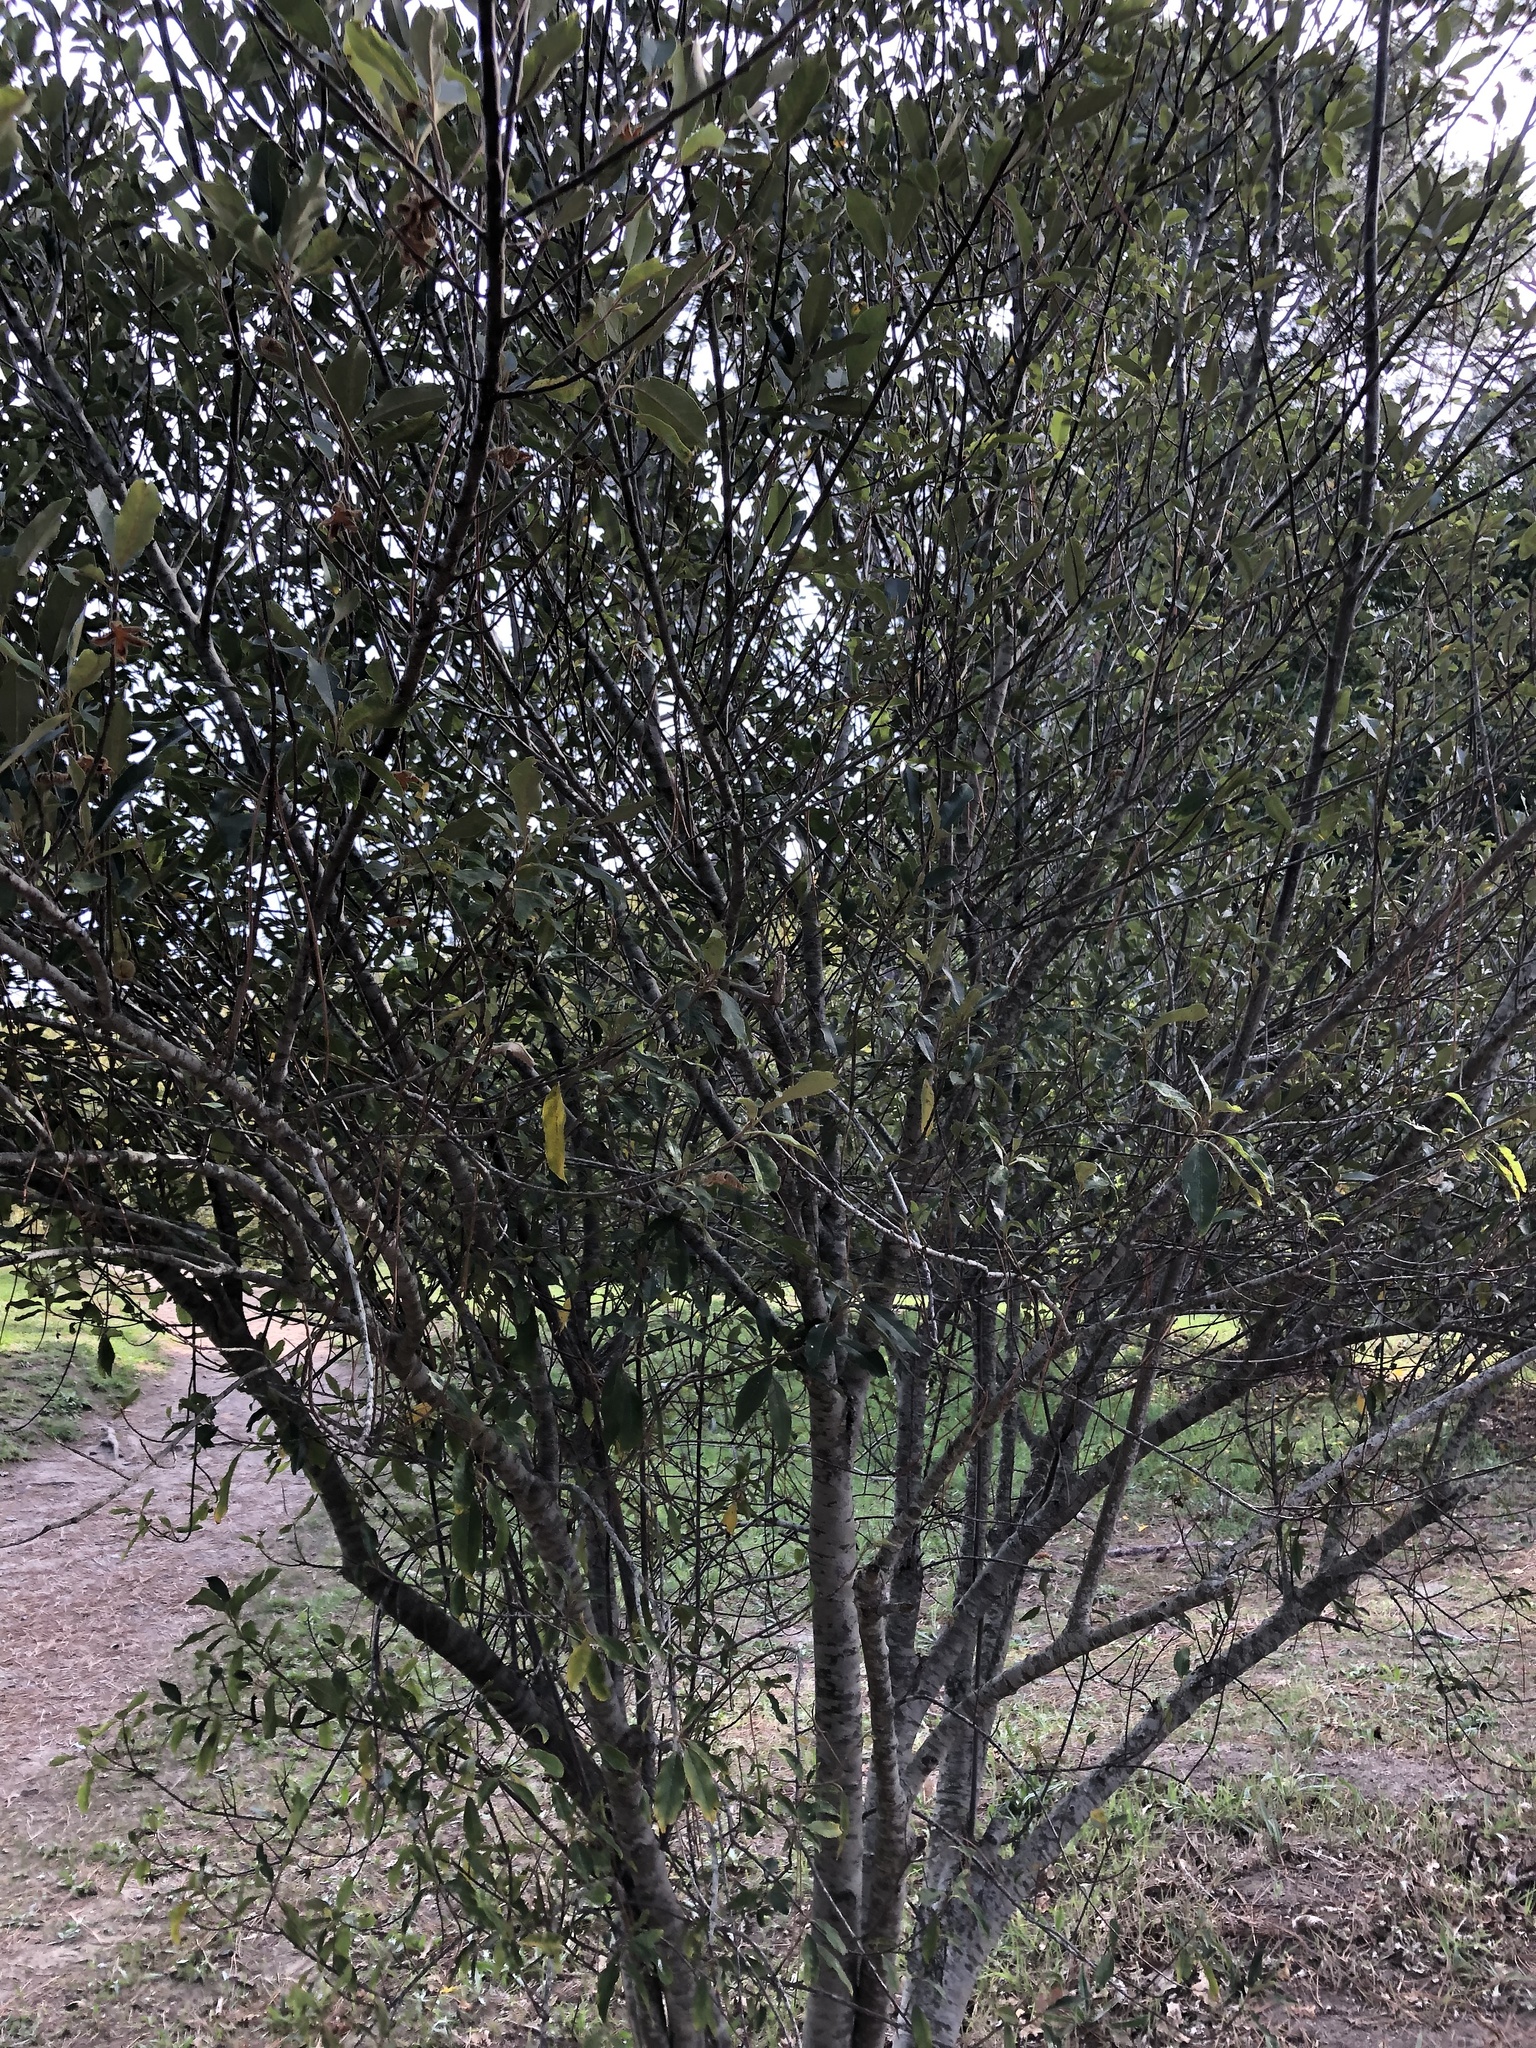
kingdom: Plantae
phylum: Tracheophyta
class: Magnoliopsida
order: Malpighiales
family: Achariaceae
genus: Kiggelaria
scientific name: Kiggelaria africana
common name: Wild peach
